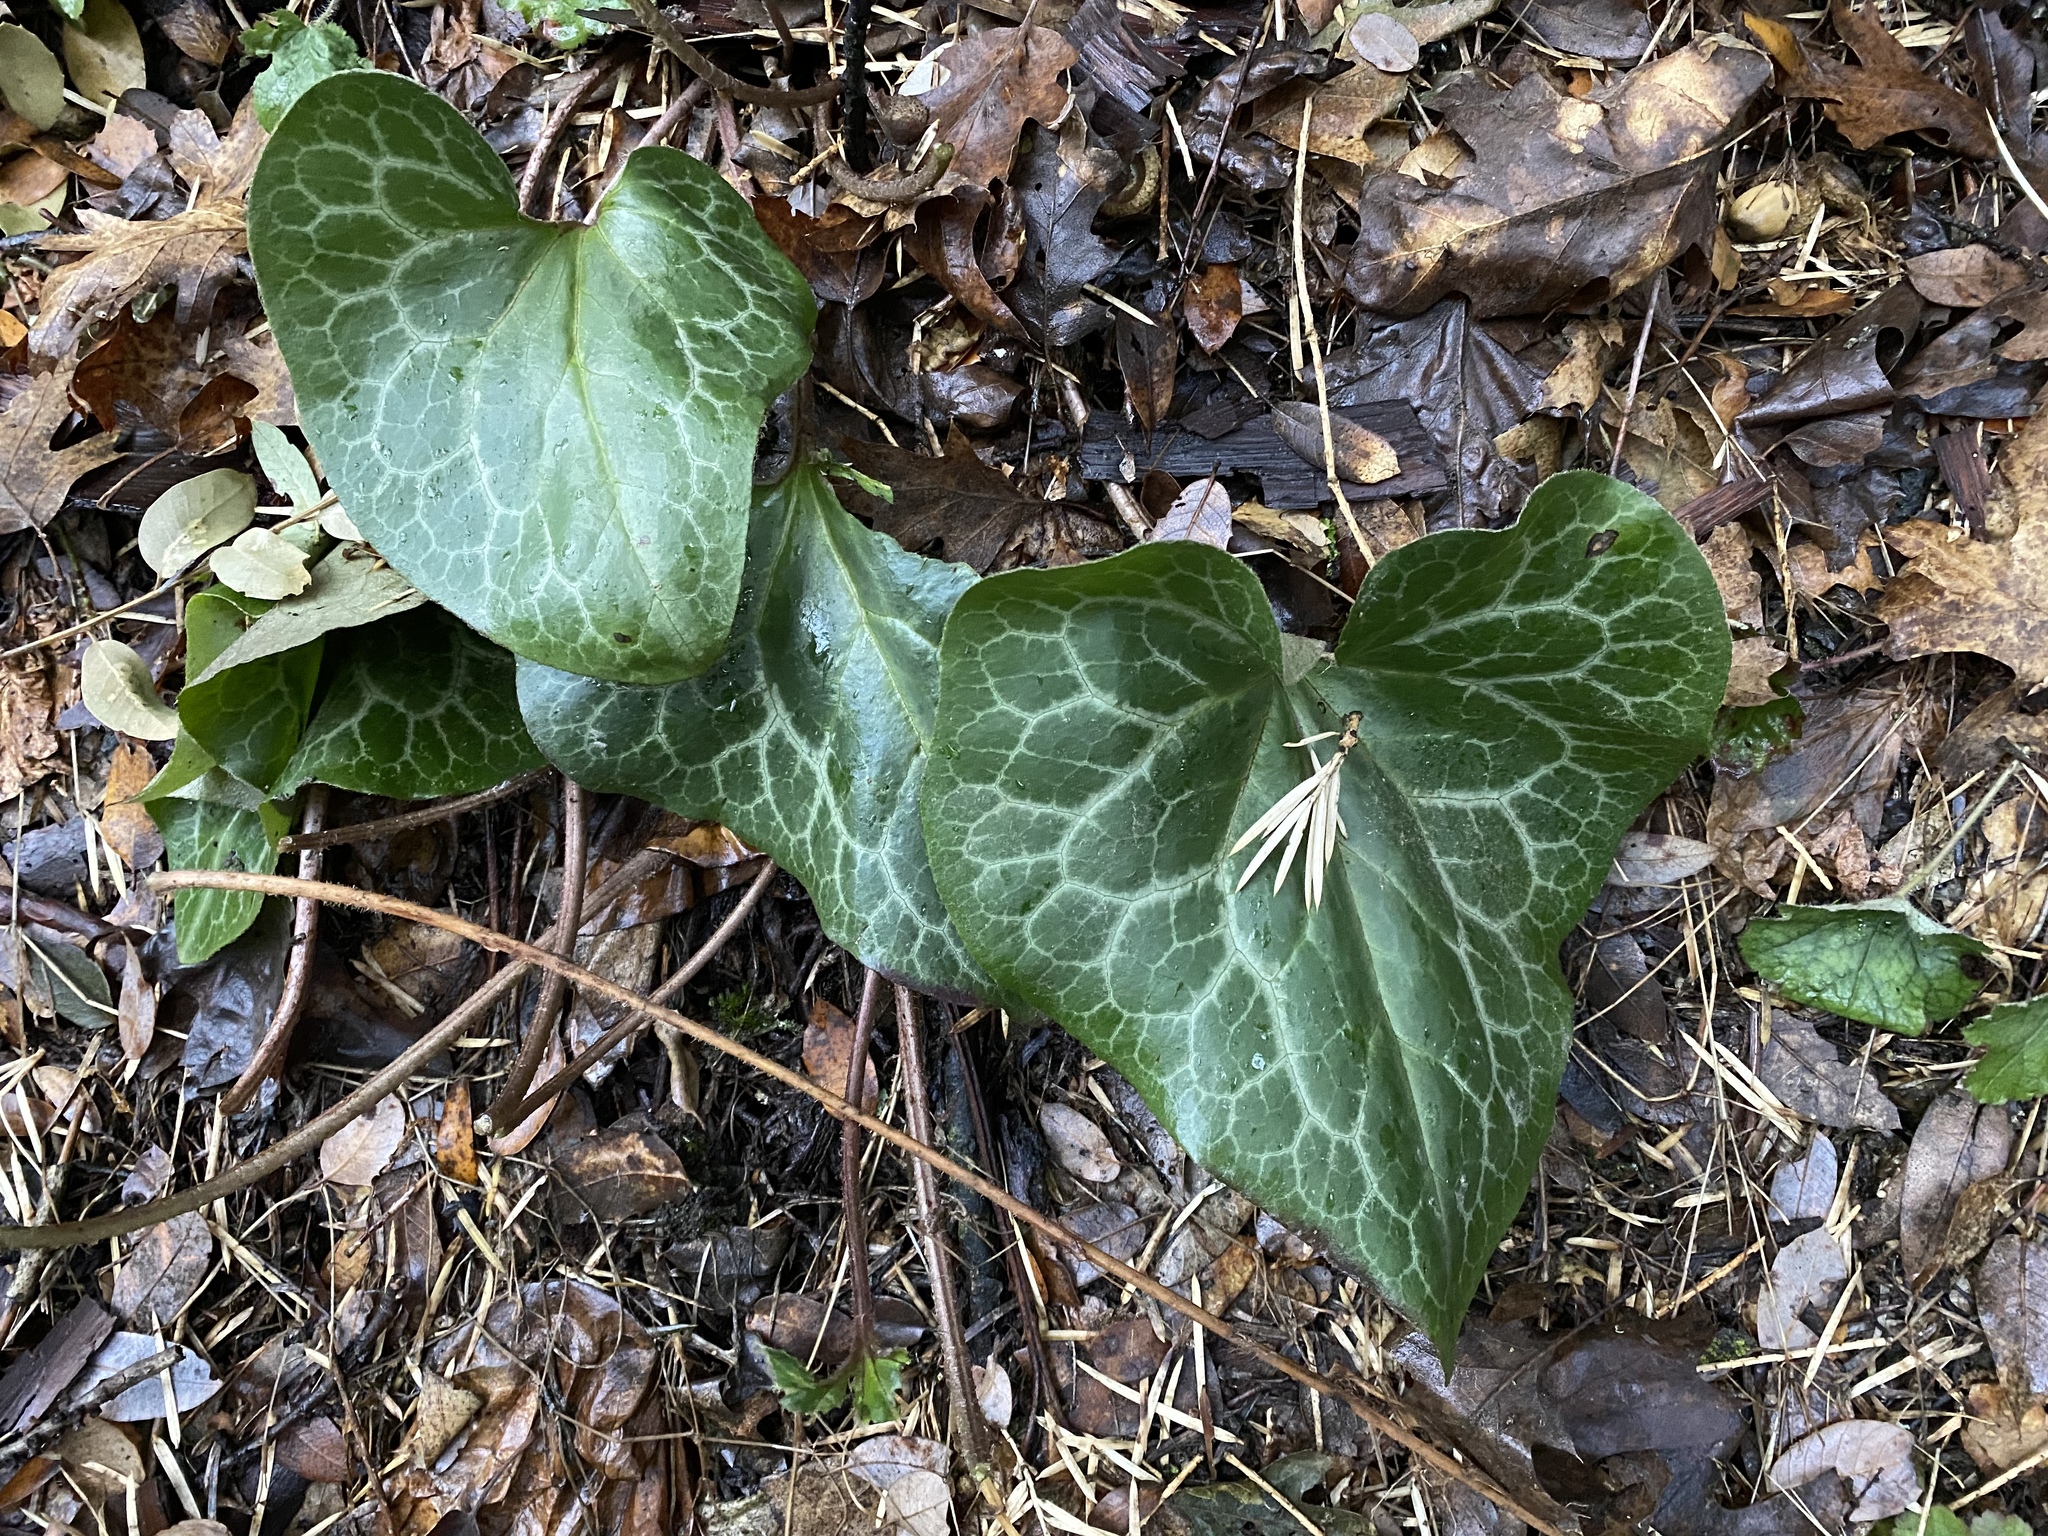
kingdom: Plantae
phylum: Tracheophyta
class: Magnoliopsida
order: Piperales
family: Aristolochiaceae
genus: Asarum
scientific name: Asarum hartwegii
